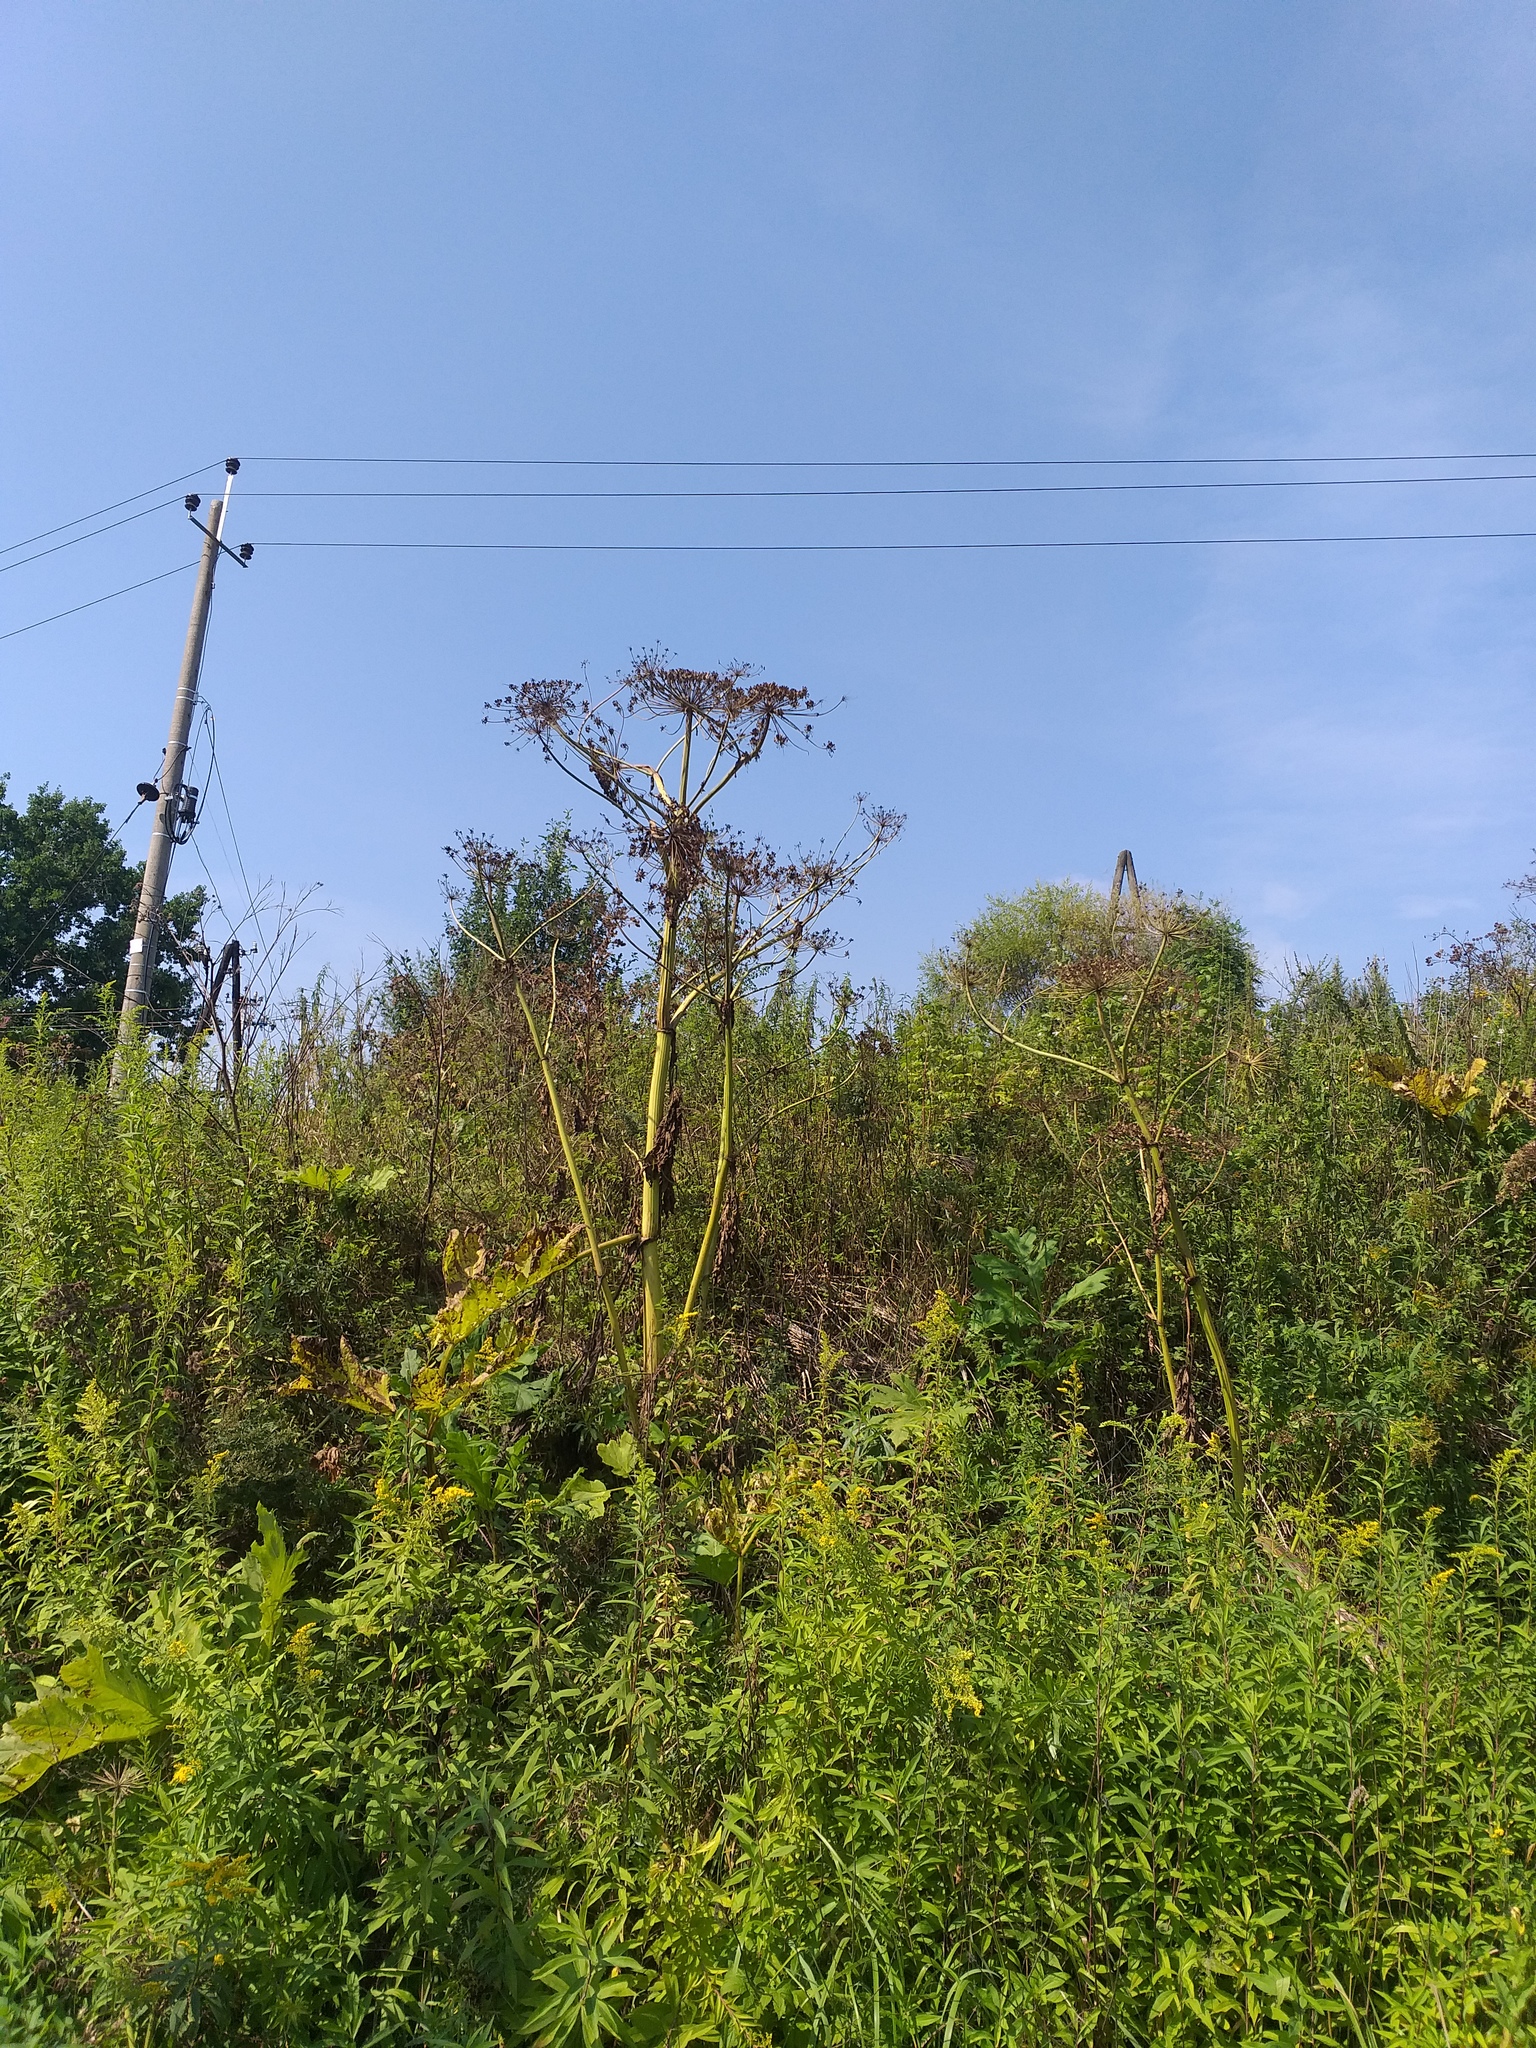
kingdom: Plantae
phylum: Tracheophyta
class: Magnoliopsida
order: Apiales
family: Apiaceae
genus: Heracleum
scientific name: Heracleum sosnowskyi
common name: Sosnowsky's hogweed
